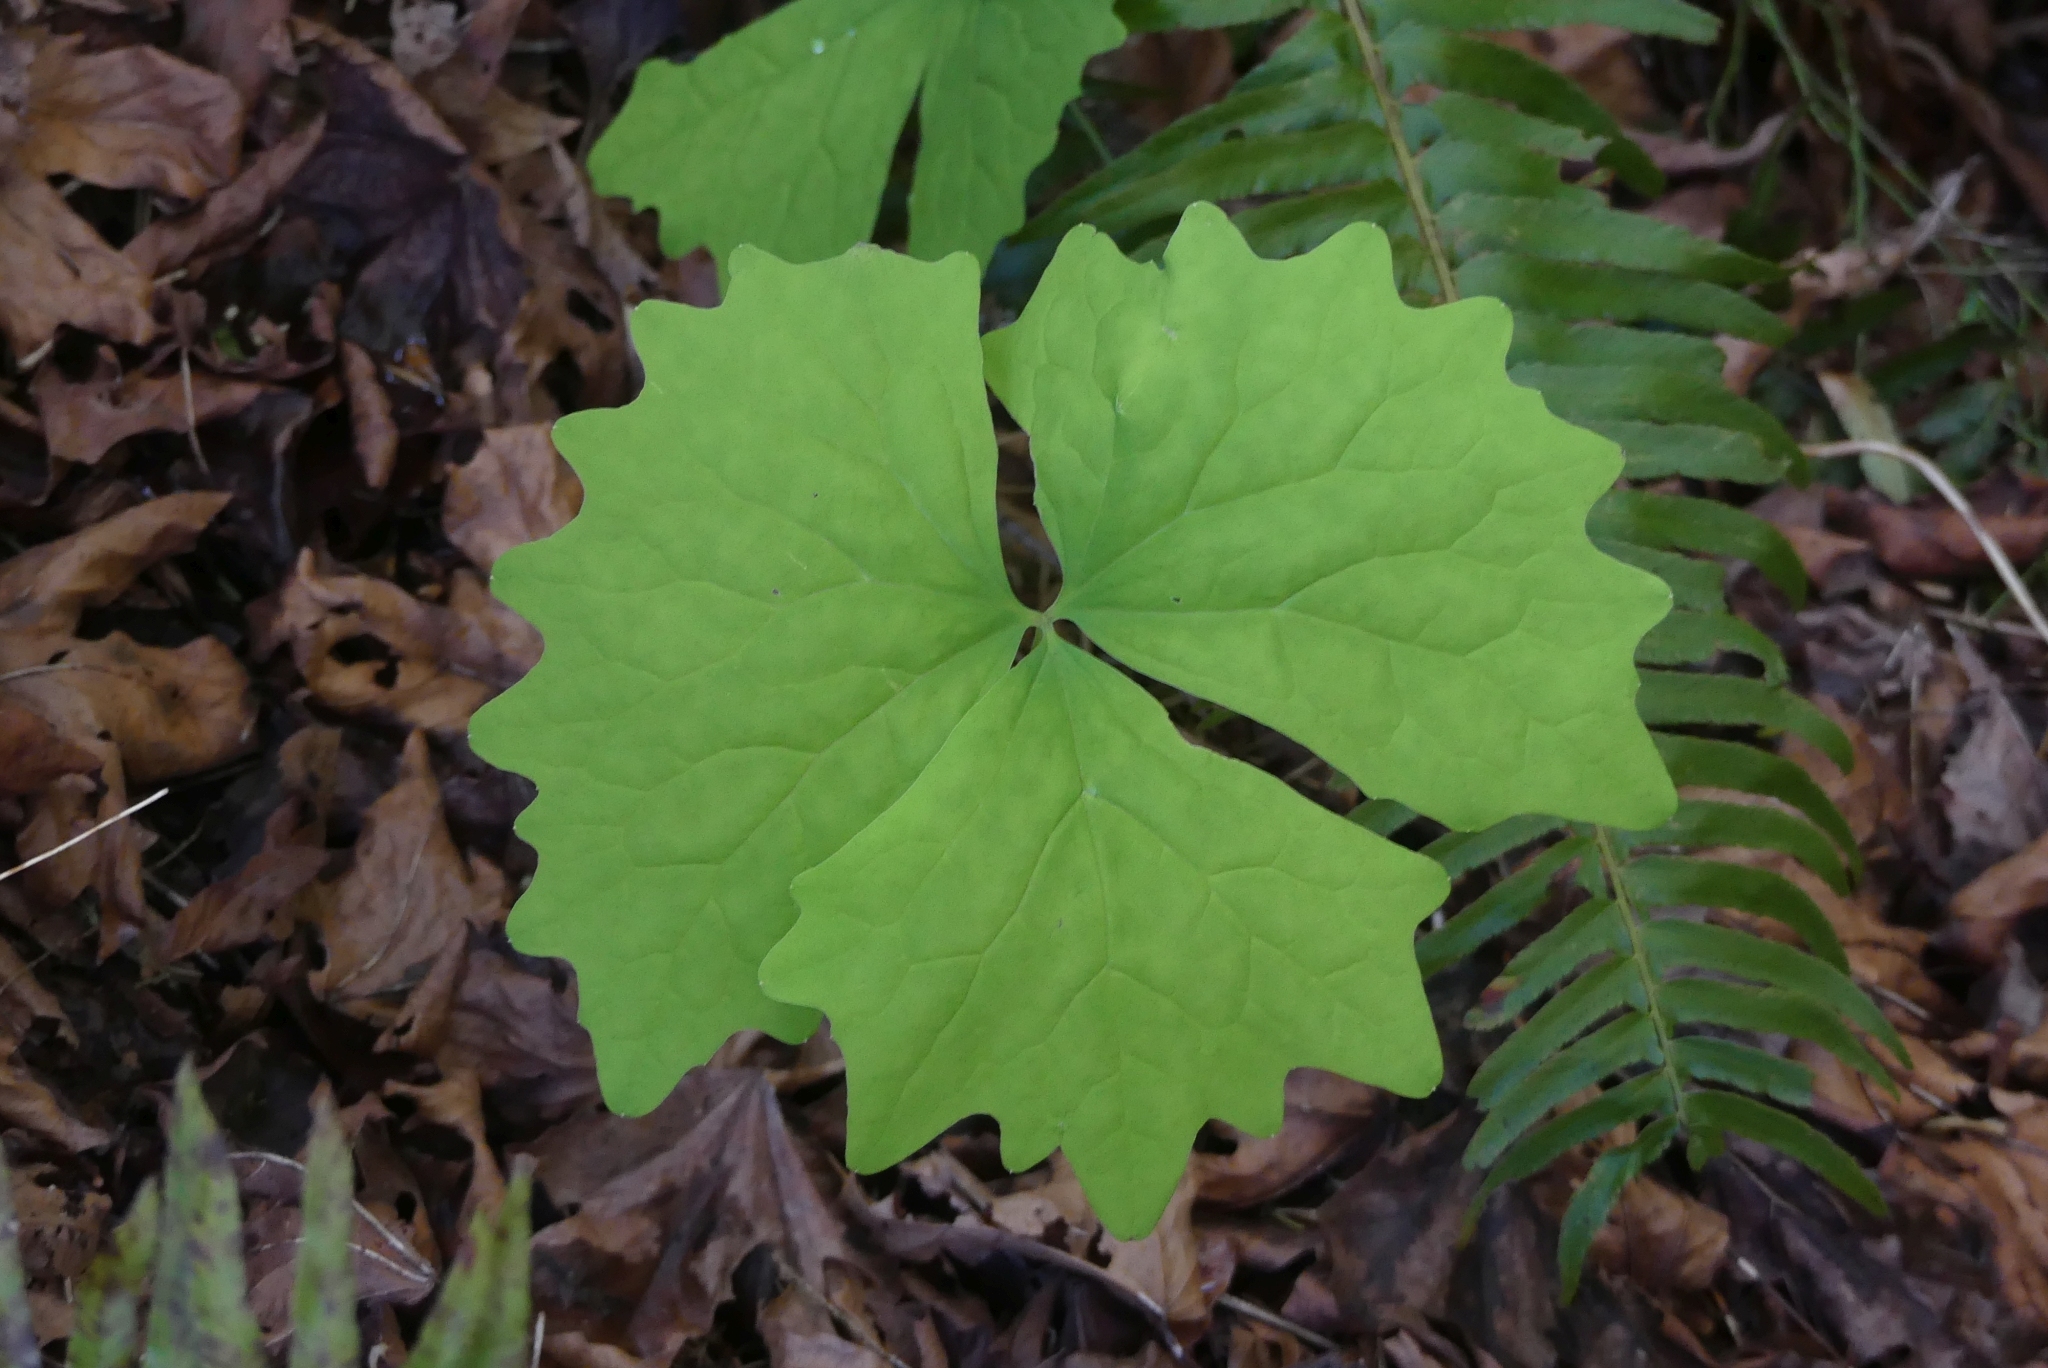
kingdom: Plantae
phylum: Tracheophyta
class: Magnoliopsida
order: Ranunculales
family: Berberidaceae
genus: Achlys
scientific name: Achlys triphylla
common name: Vanilla-leaf
